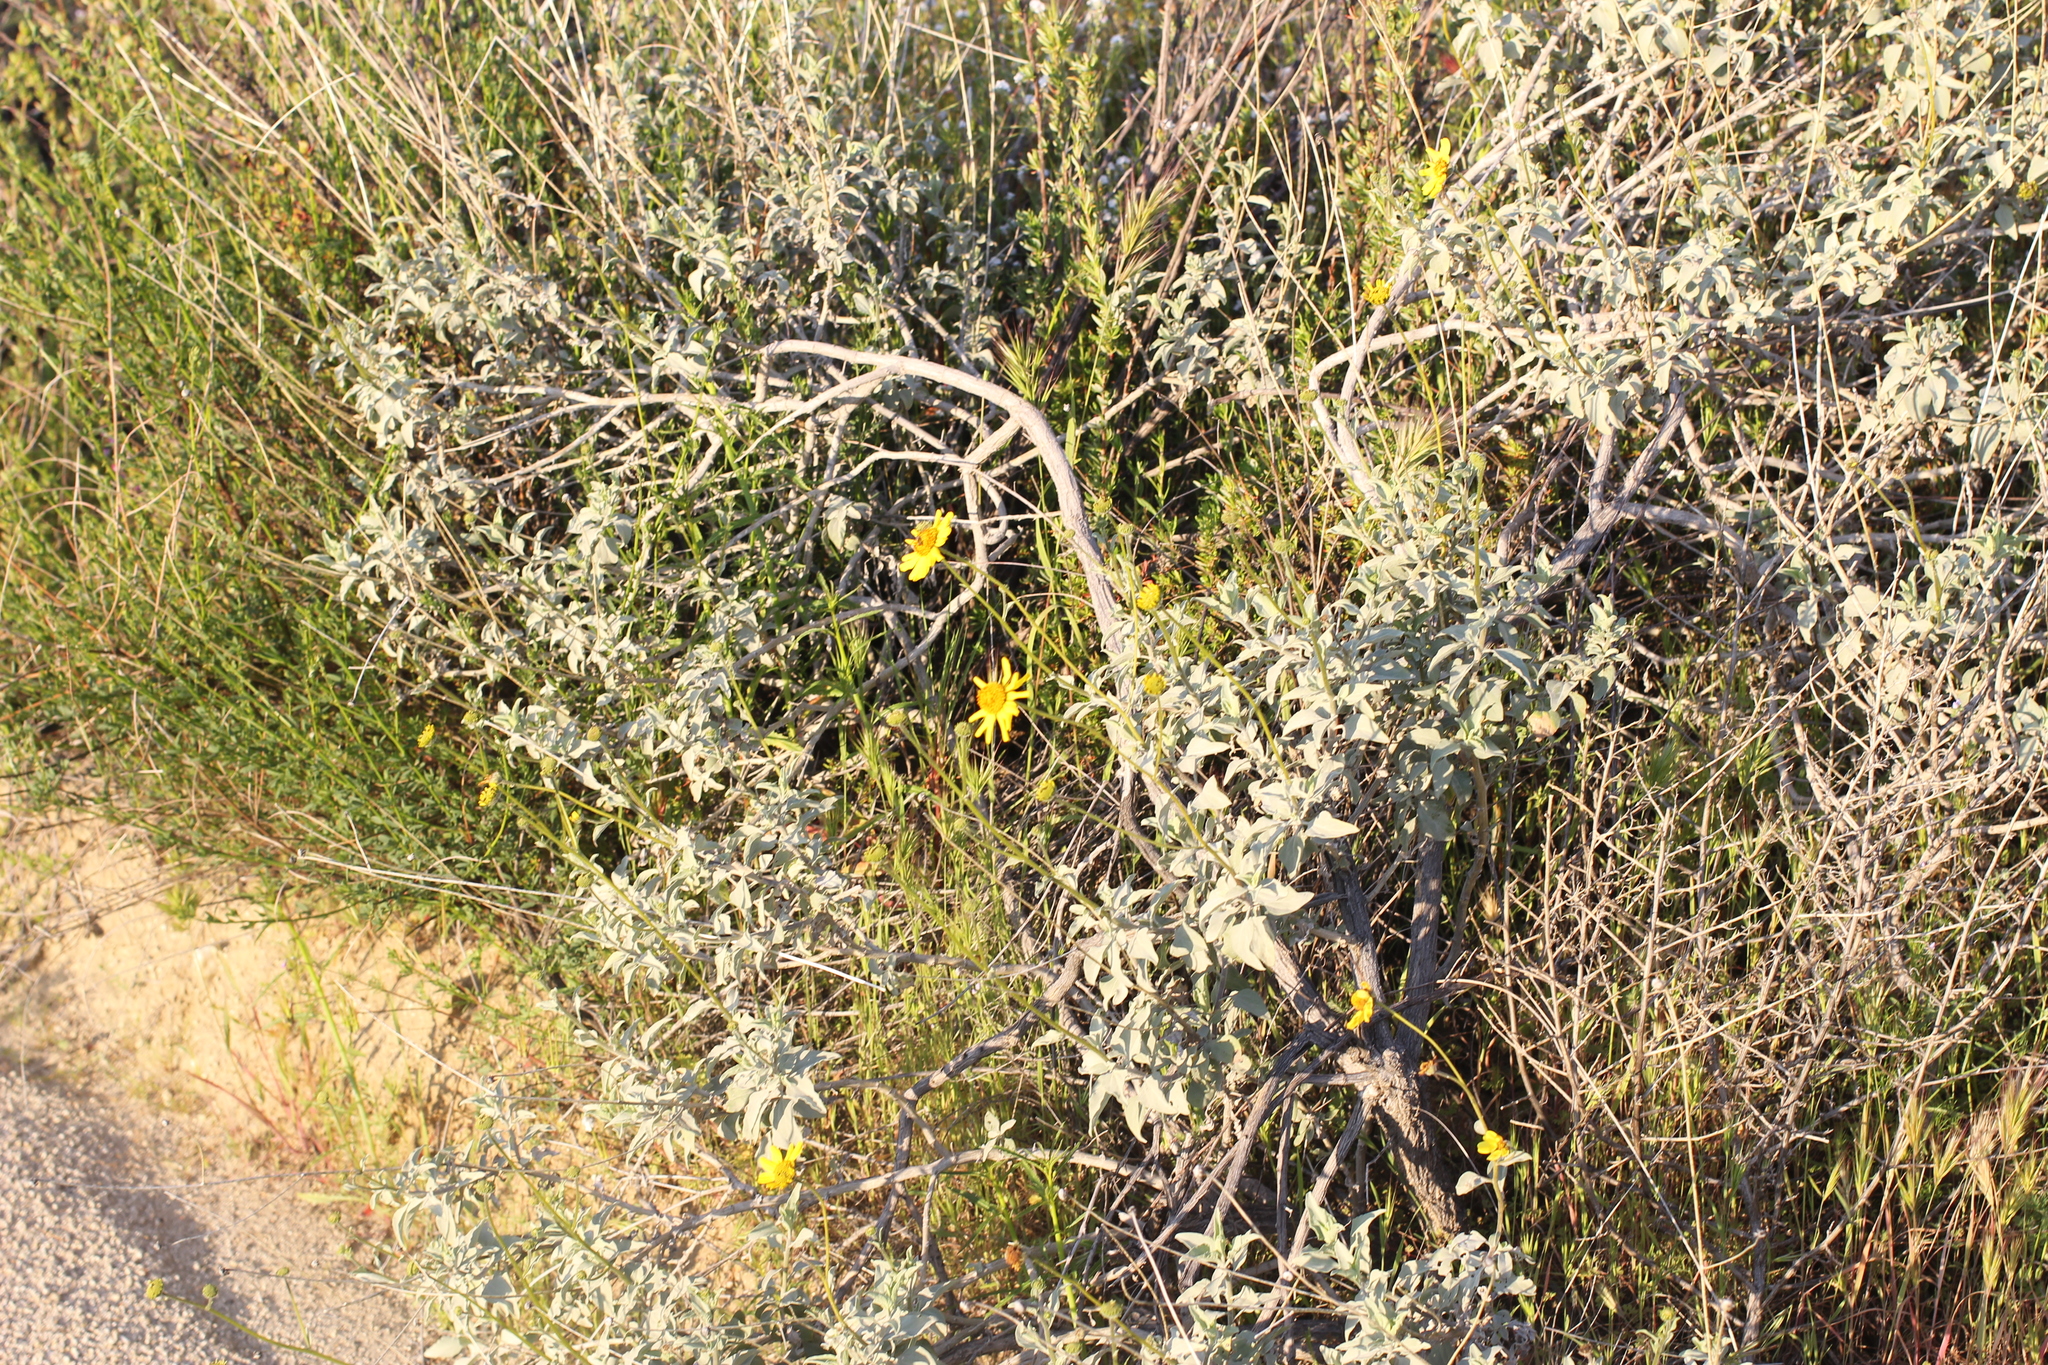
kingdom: Plantae
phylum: Tracheophyta
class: Magnoliopsida
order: Asterales
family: Asteraceae
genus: Encelia
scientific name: Encelia farinosa
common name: Brittlebush
